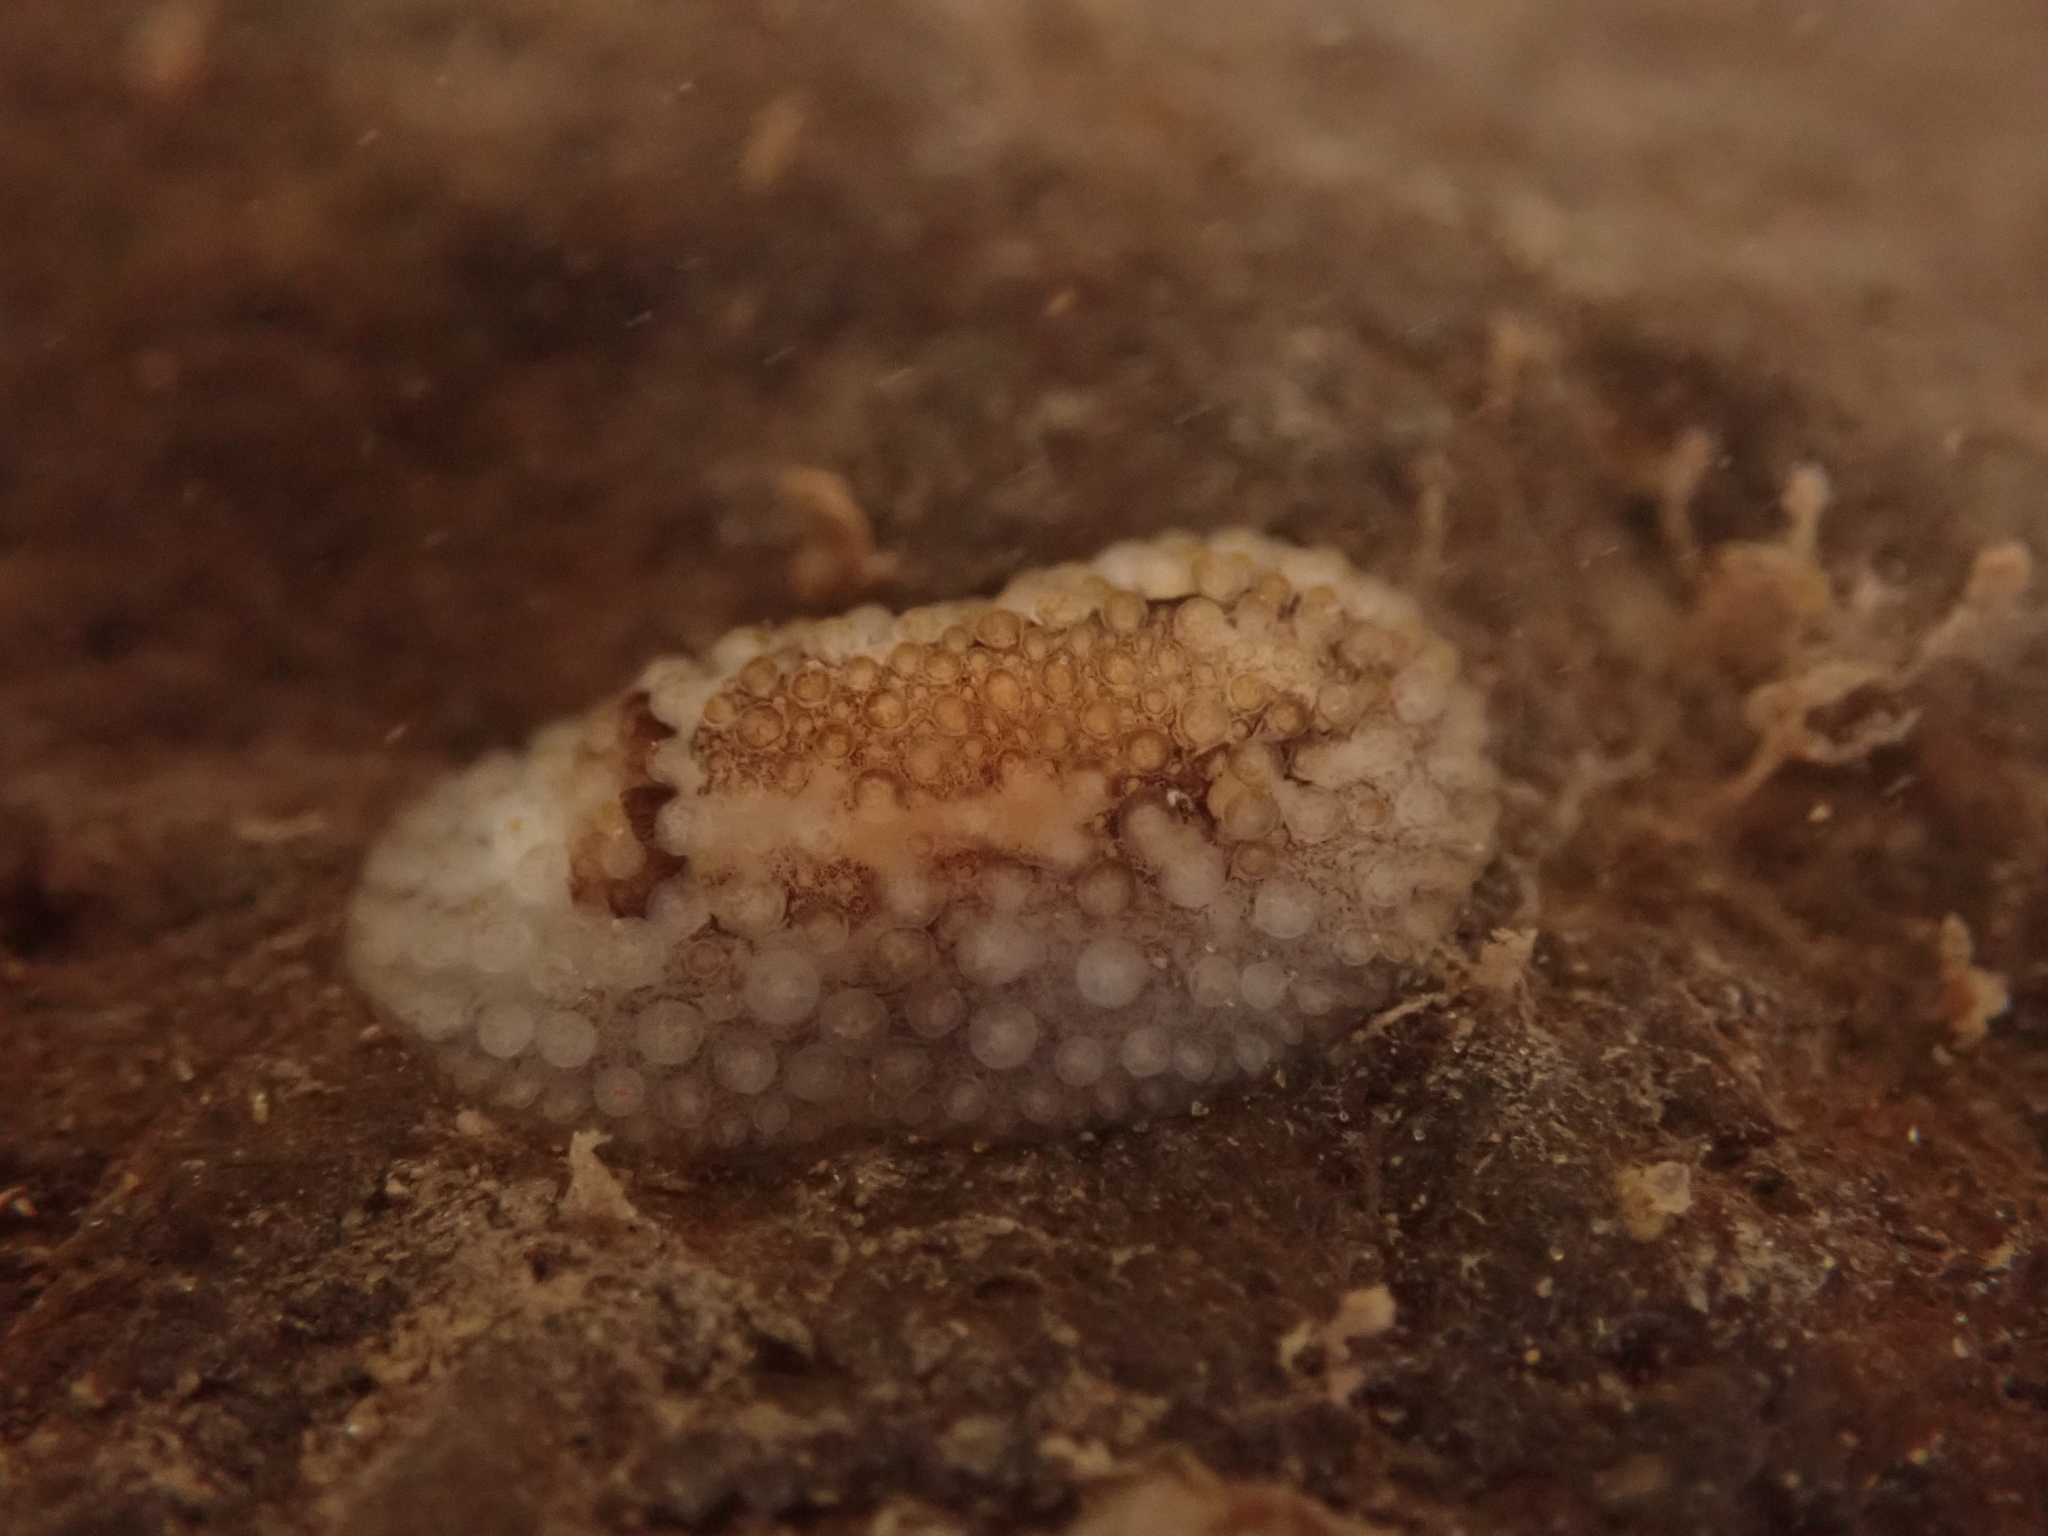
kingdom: Animalia
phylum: Mollusca
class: Gastropoda
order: Nudibranchia
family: Onchidorididae
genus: Onchidoris
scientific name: Onchidoris bilamellata
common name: Barnacle-eating onchidoris
